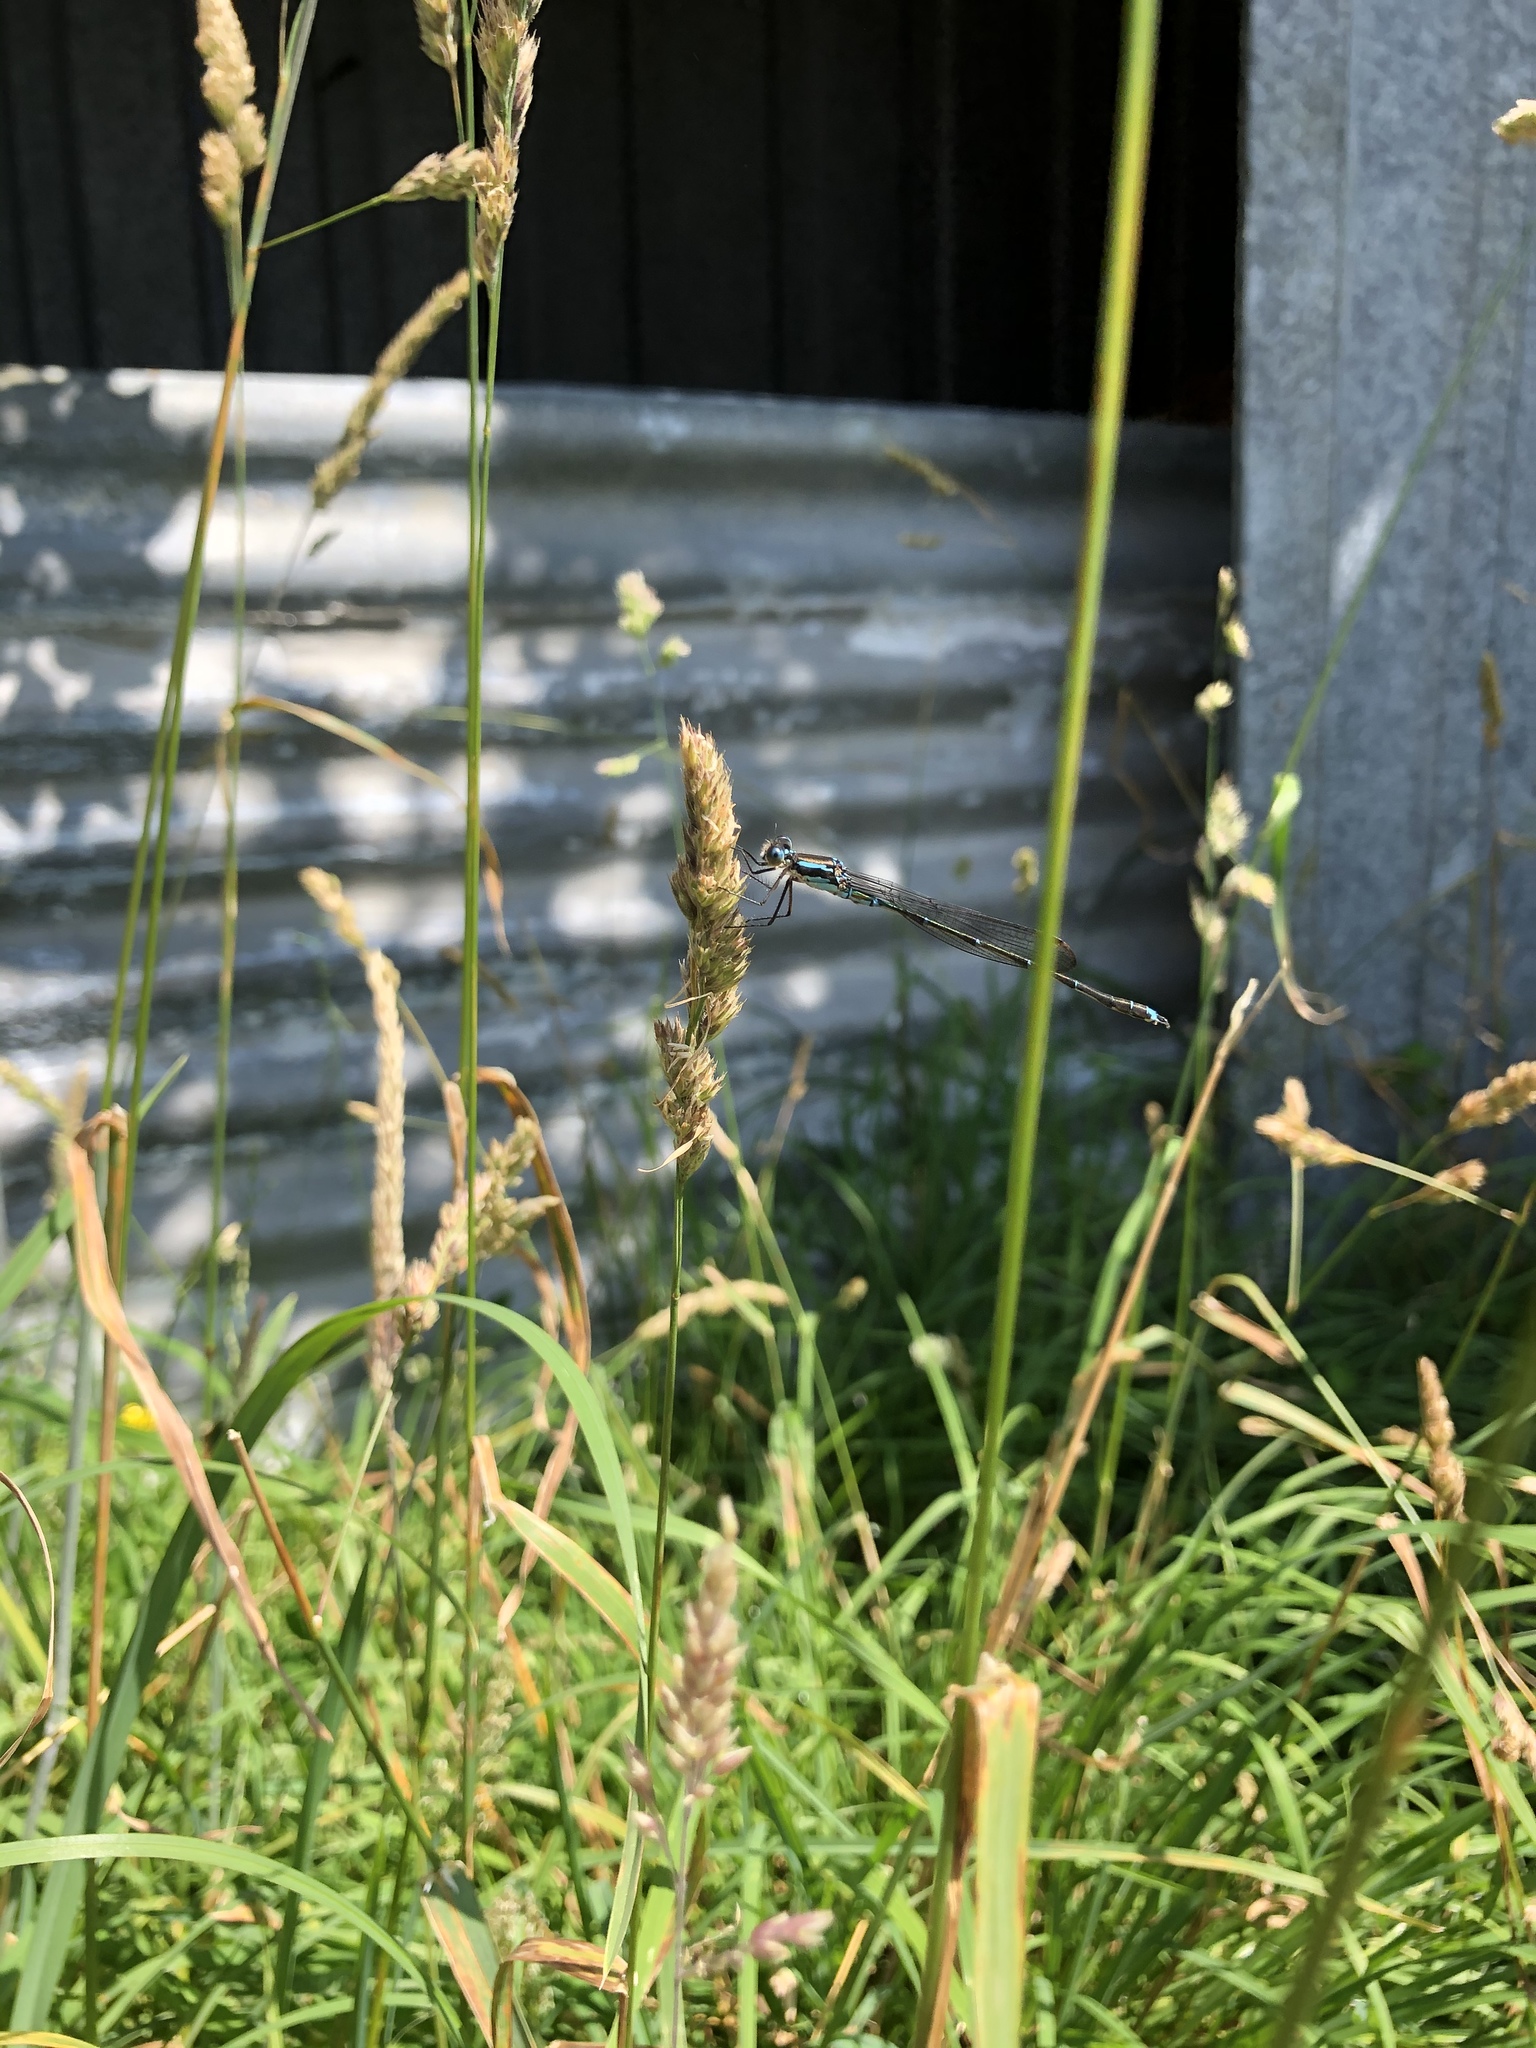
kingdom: Animalia
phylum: Arthropoda
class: Insecta
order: Odonata
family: Lestidae
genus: Austrolestes
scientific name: Austrolestes colensonis
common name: Blue damselfly
